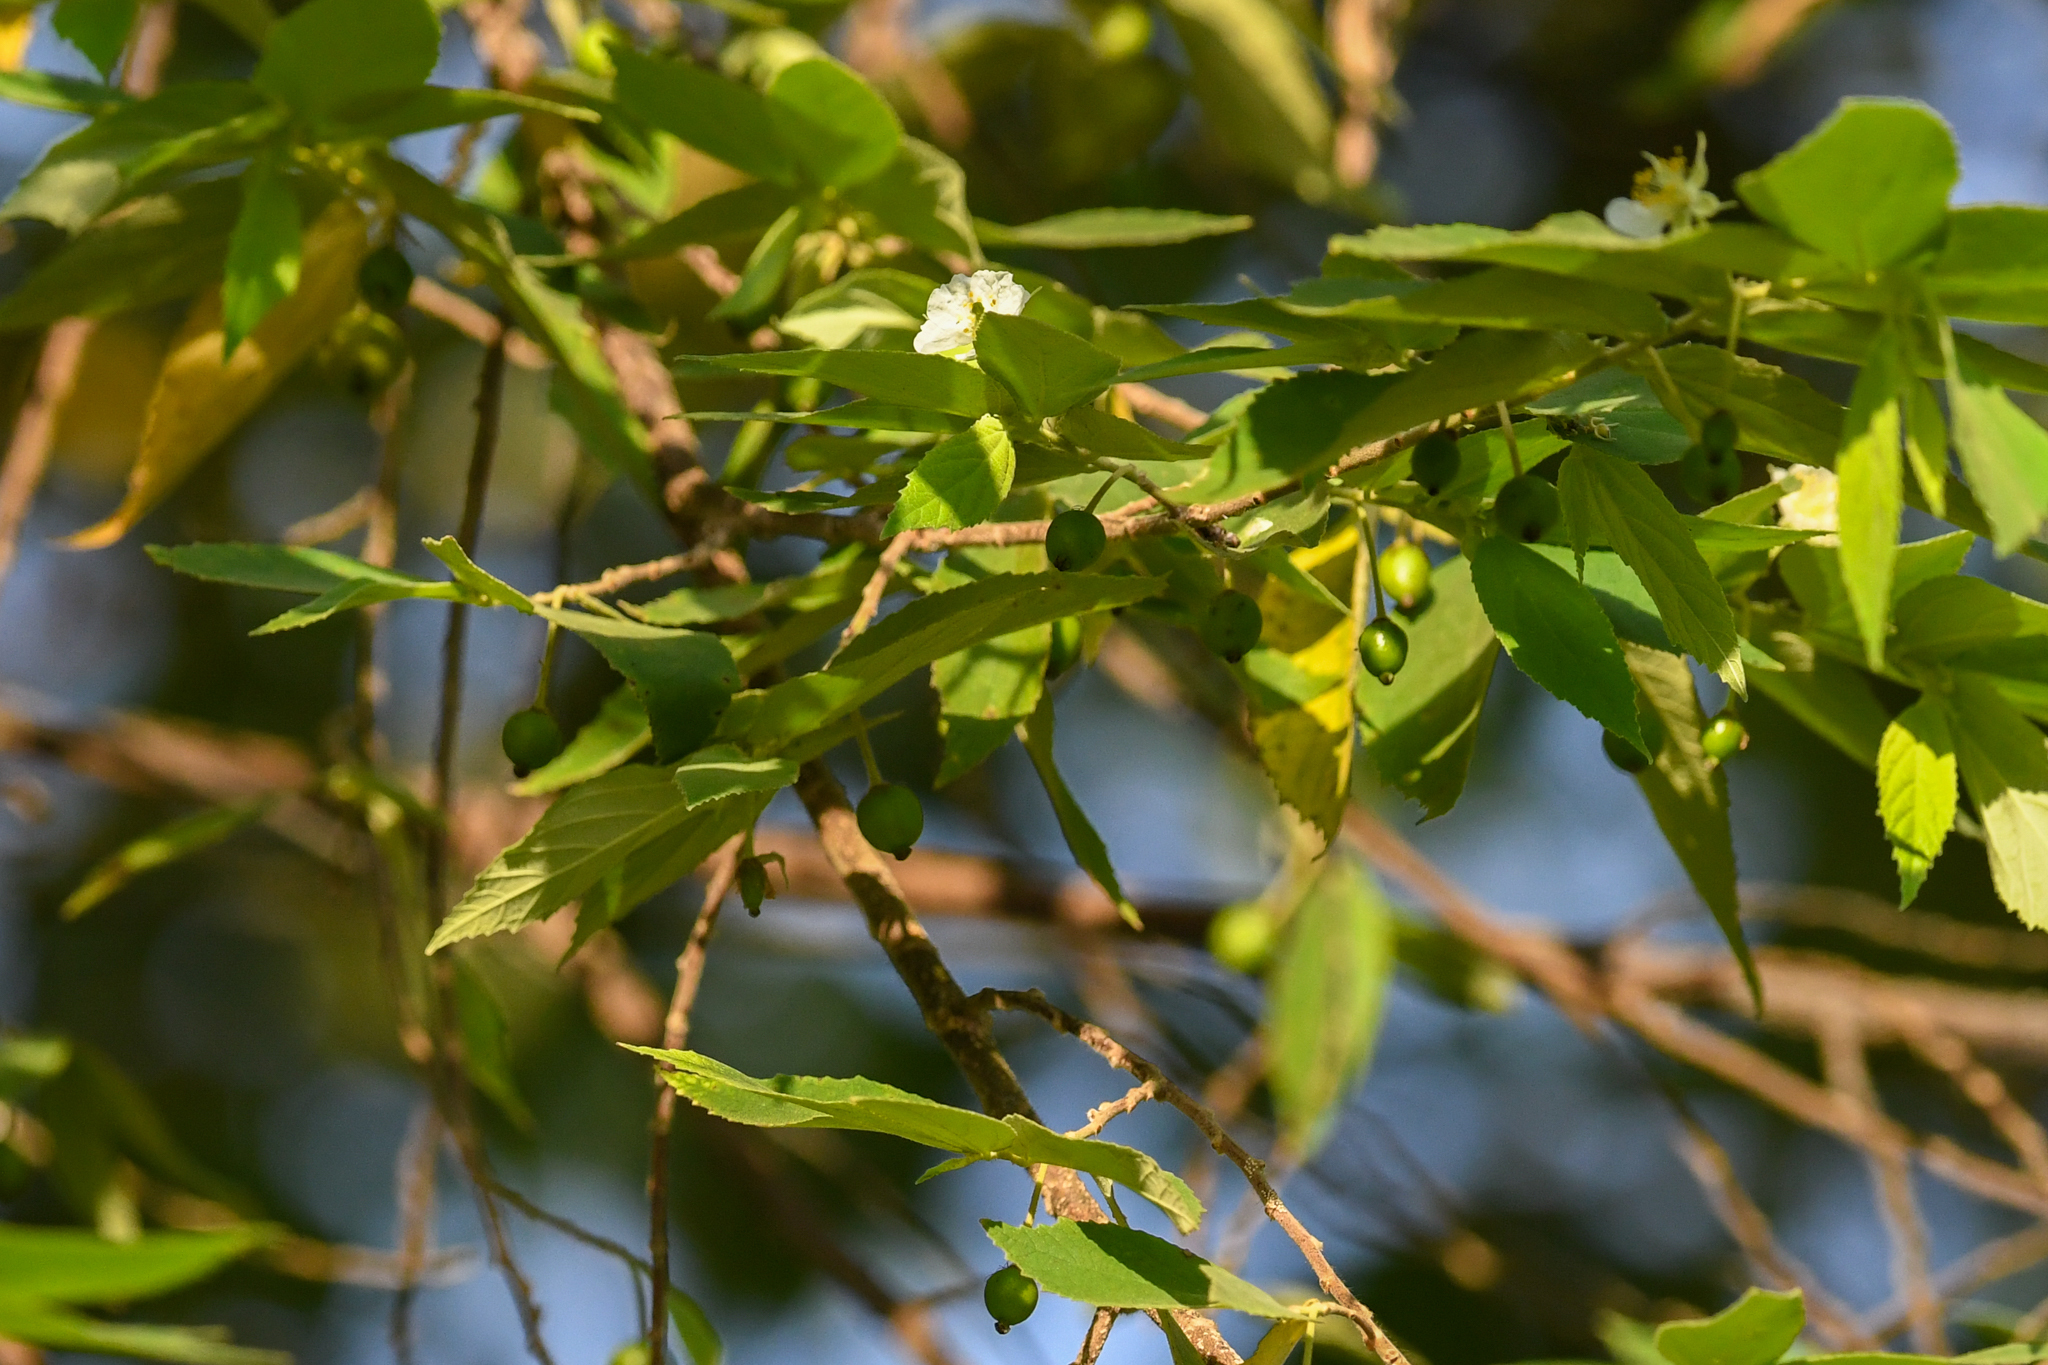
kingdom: Plantae
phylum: Tracheophyta
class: Magnoliopsida
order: Malvales
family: Muntingiaceae
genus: Muntingia
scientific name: Muntingia calabura
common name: Strawberrytree
